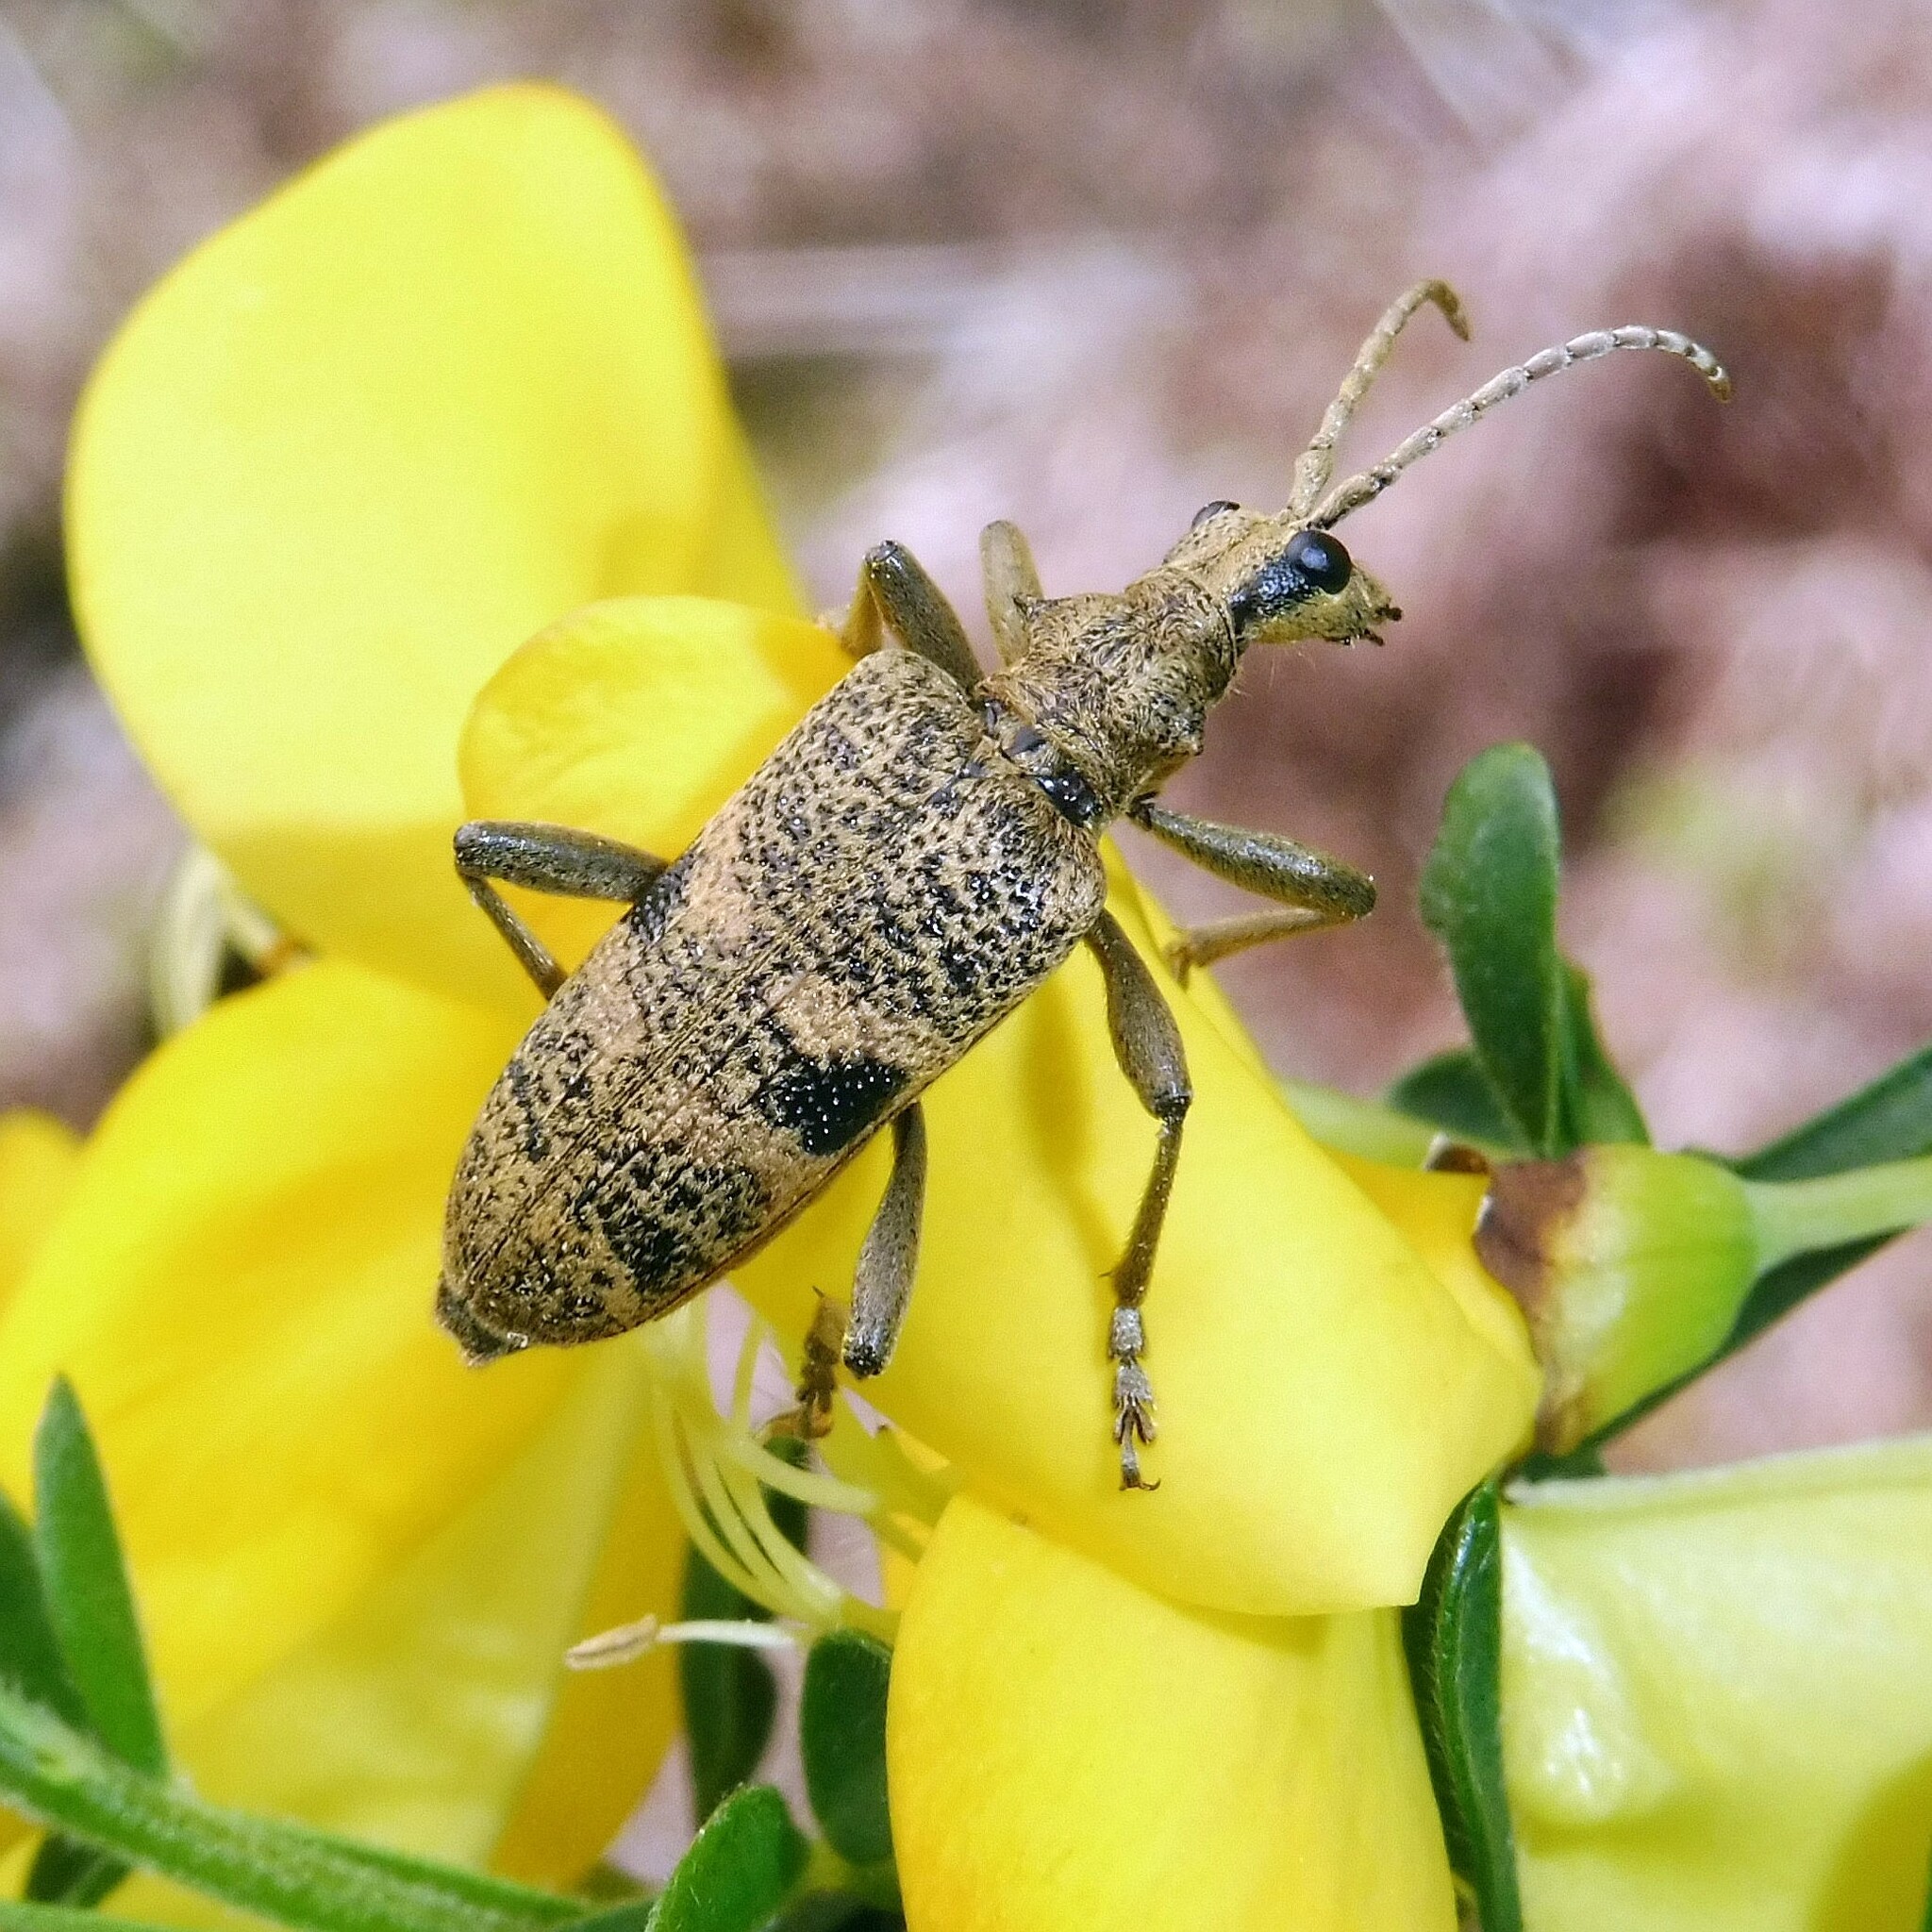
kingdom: Animalia
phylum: Arthropoda
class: Insecta
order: Coleoptera
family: Cerambycidae
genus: Rhagium
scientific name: Rhagium mordax
